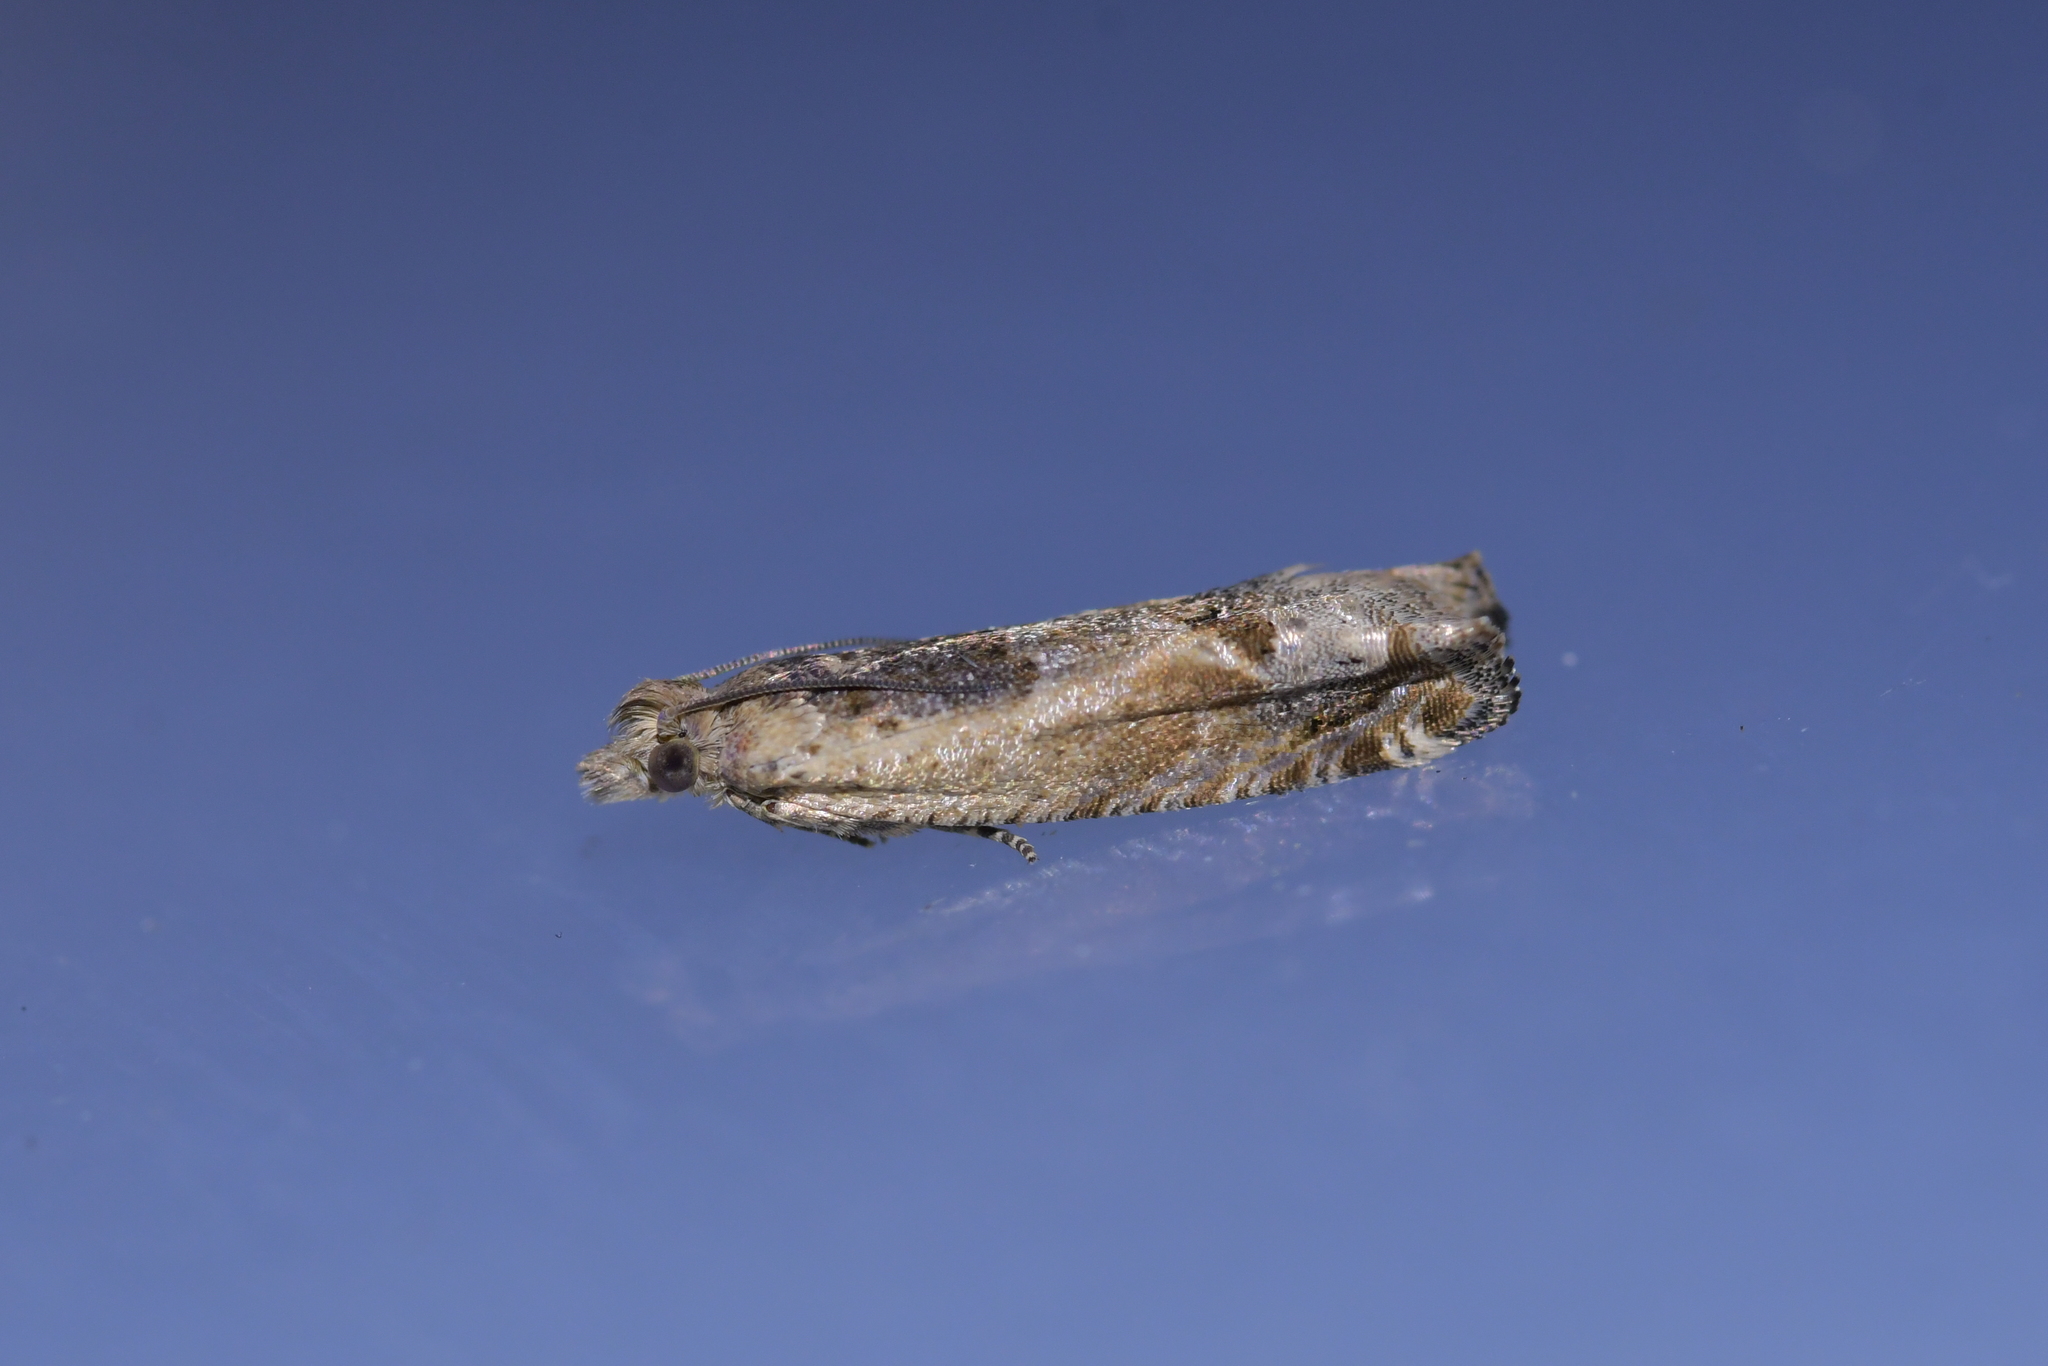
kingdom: Animalia
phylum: Arthropoda
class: Insecta
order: Lepidoptera
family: Tortricidae
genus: Crocidosema
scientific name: Crocidosema plebejana
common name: Southern bell
